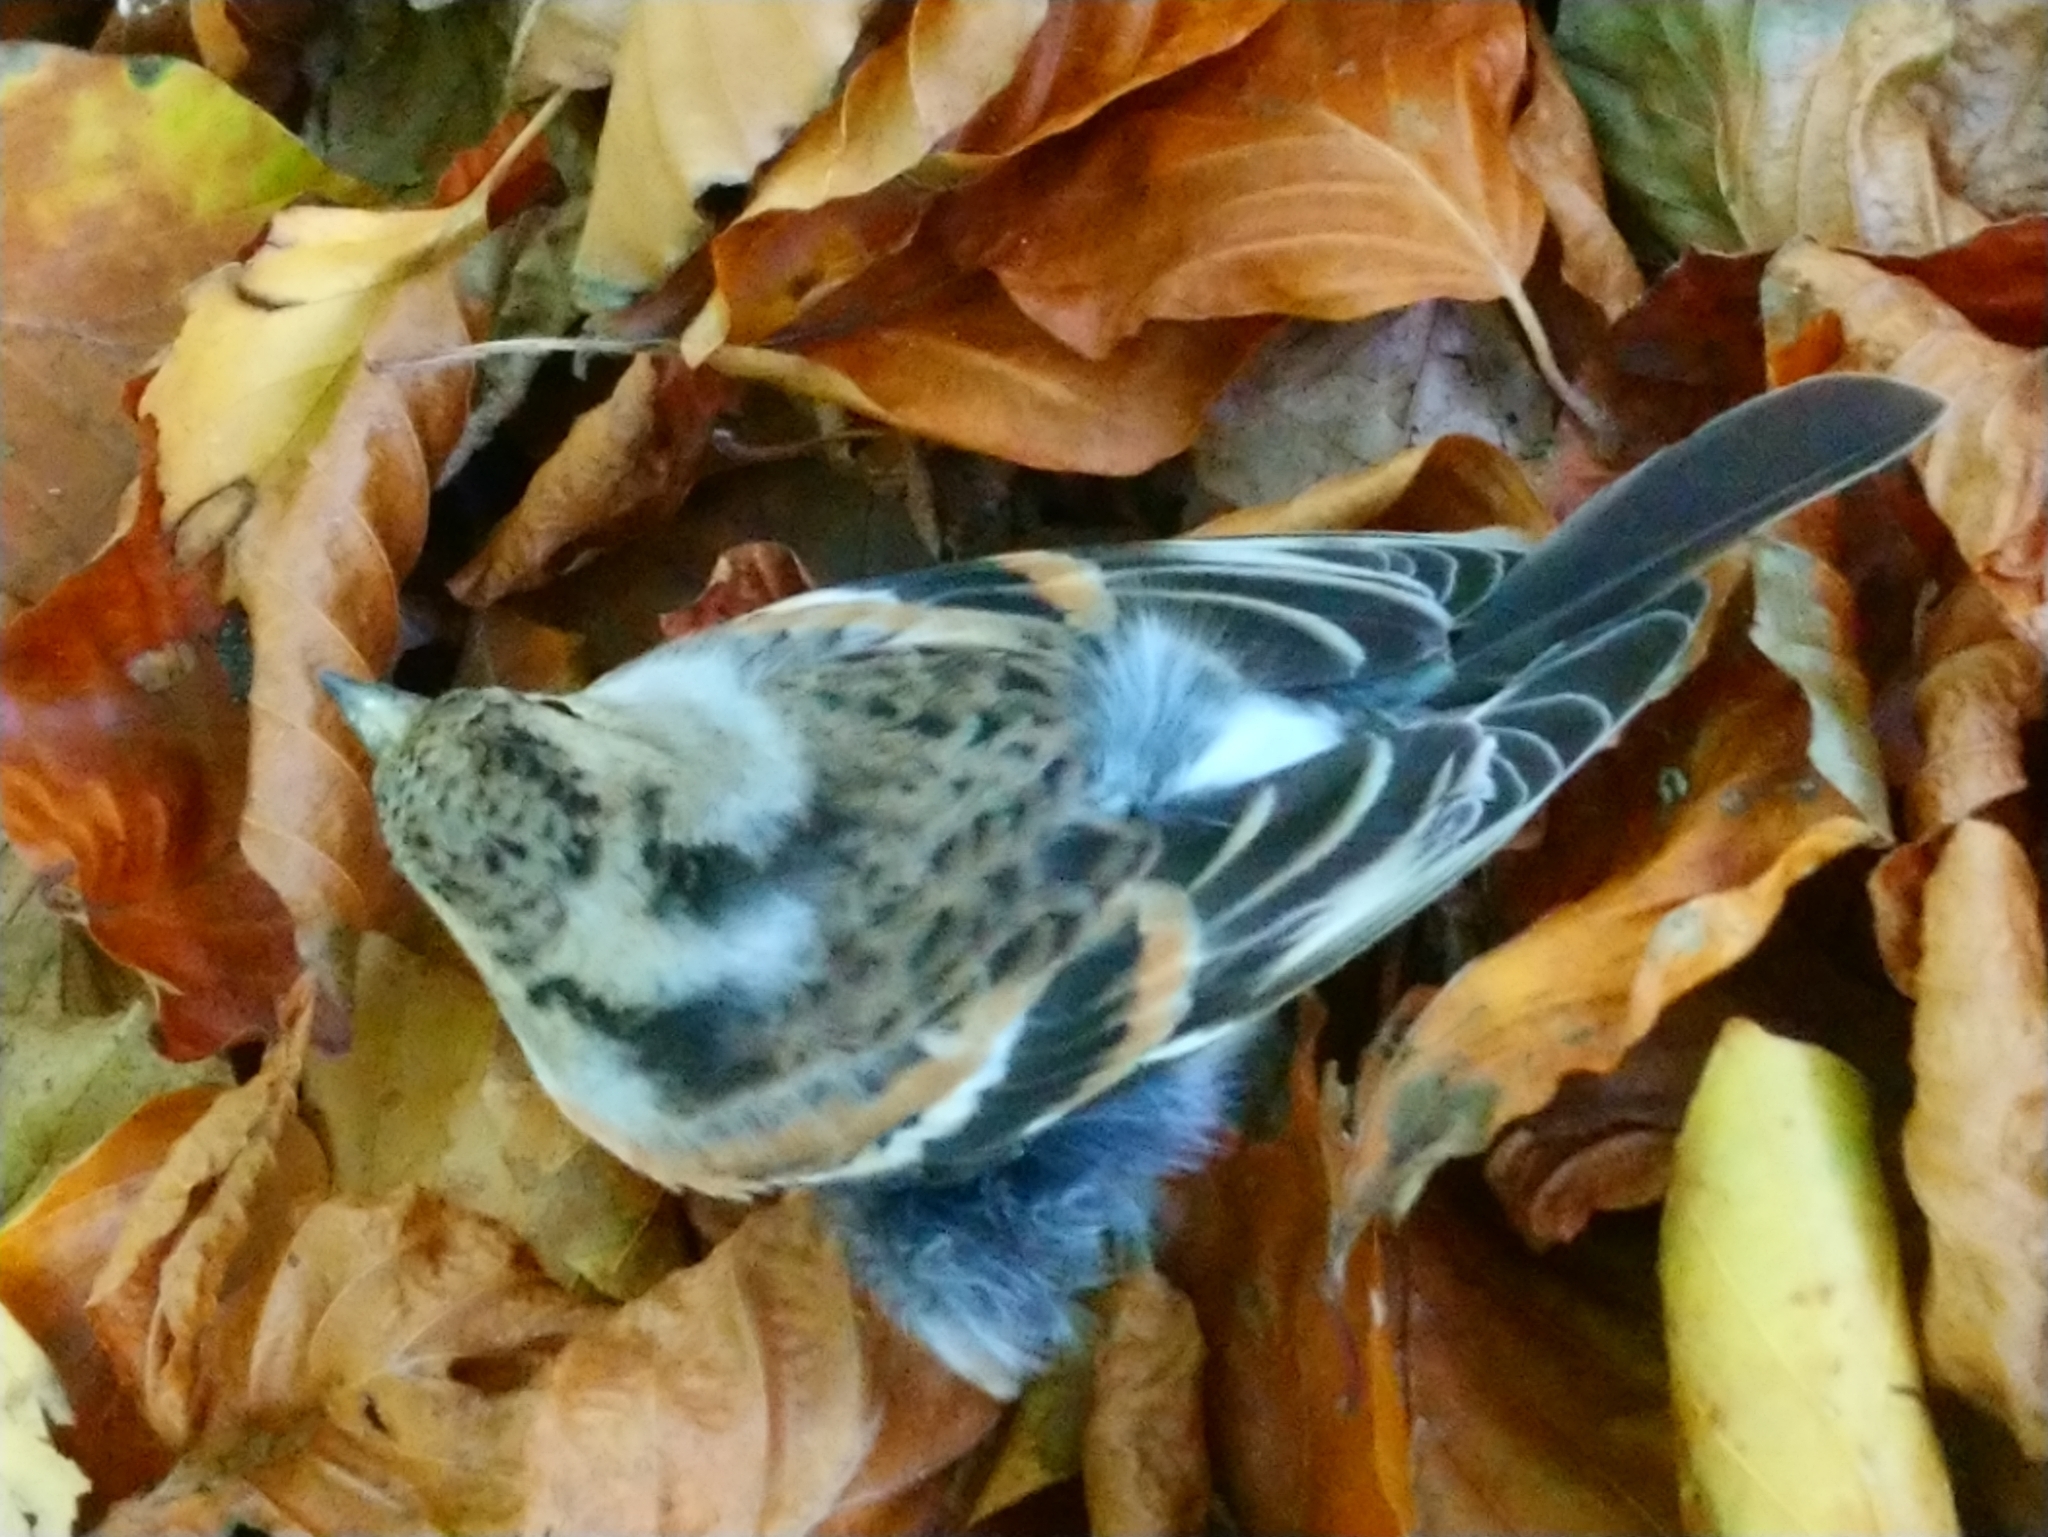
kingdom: Animalia
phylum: Chordata
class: Aves
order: Passeriformes
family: Fringillidae
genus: Fringilla
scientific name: Fringilla montifringilla
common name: Brambling
